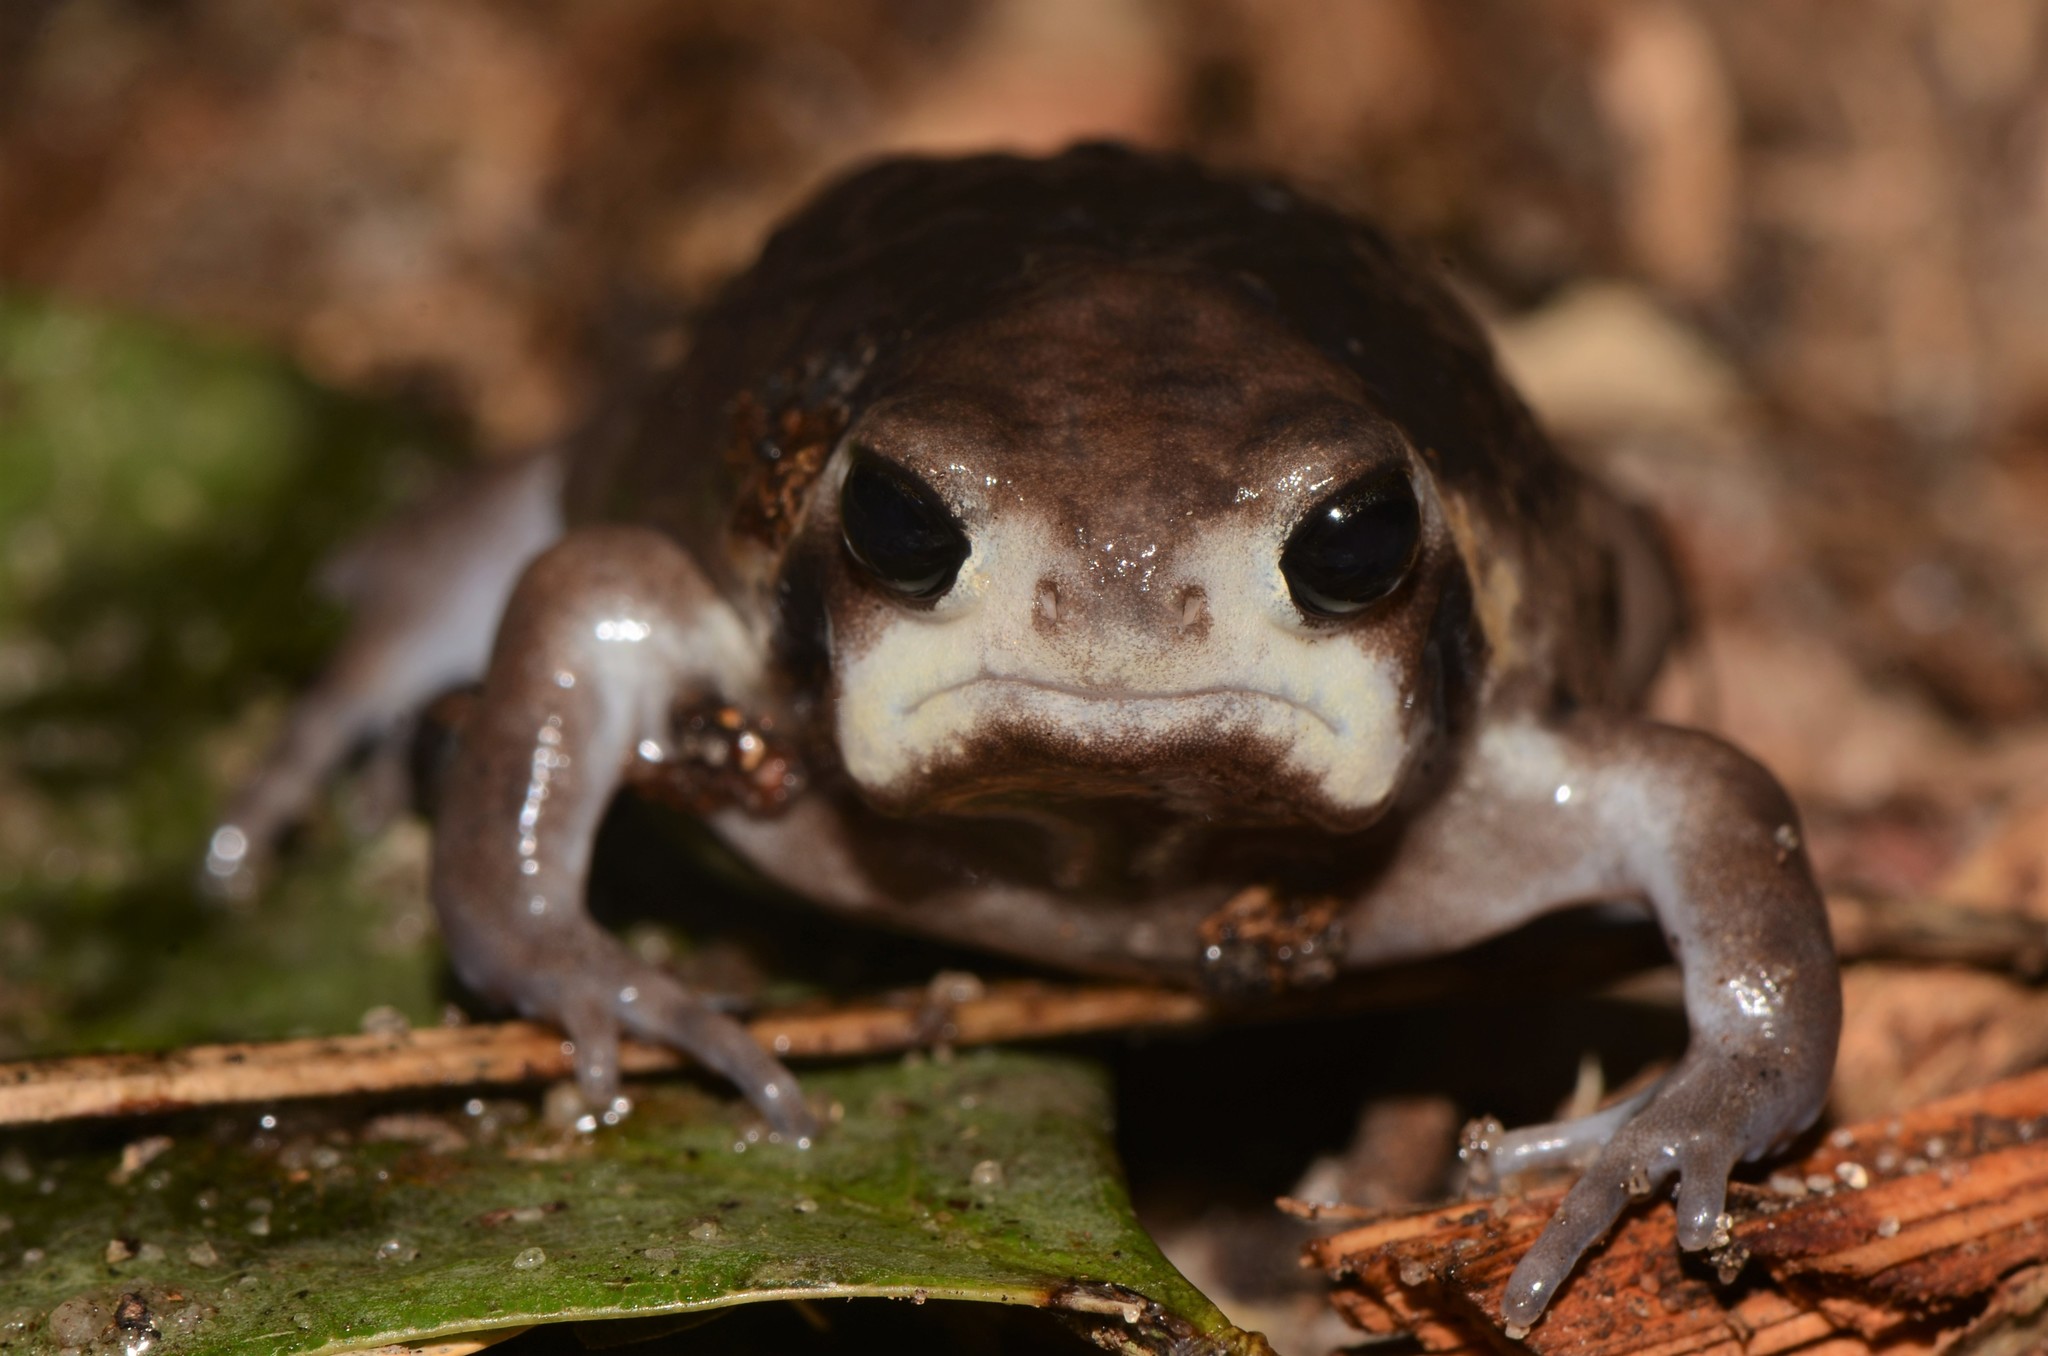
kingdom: Animalia
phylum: Chordata
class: Amphibia
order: Anura
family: Brevicipitidae
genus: Breviceps
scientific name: Breviceps mossambicus
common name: Mozambique rain frog
